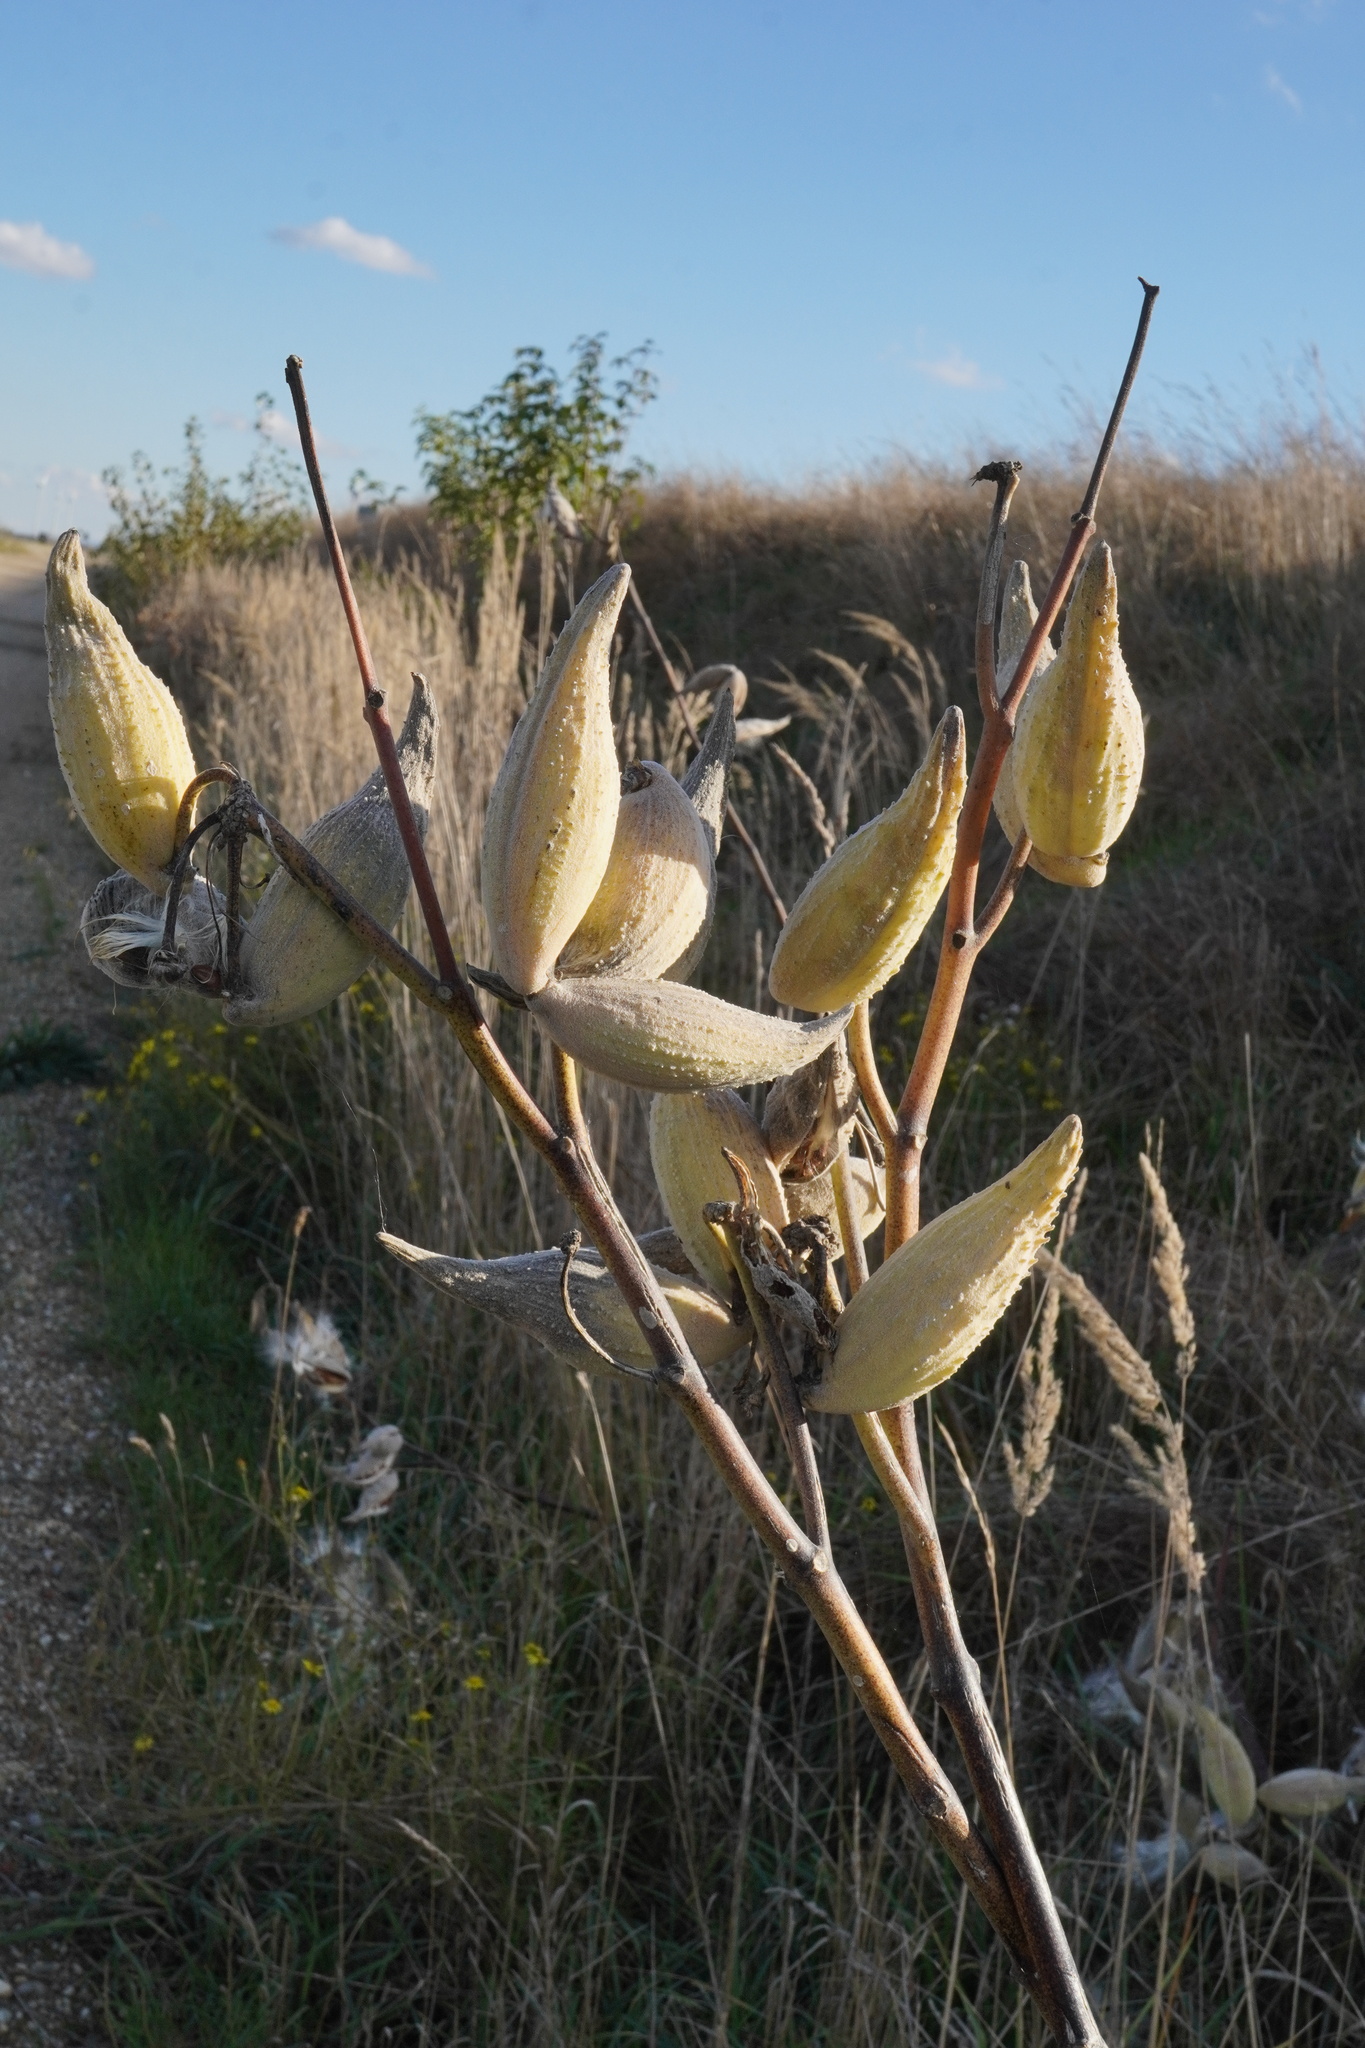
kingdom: Plantae
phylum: Tracheophyta
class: Magnoliopsida
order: Gentianales
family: Apocynaceae
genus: Asclepias
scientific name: Asclepias syriaca
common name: Common milkweed
